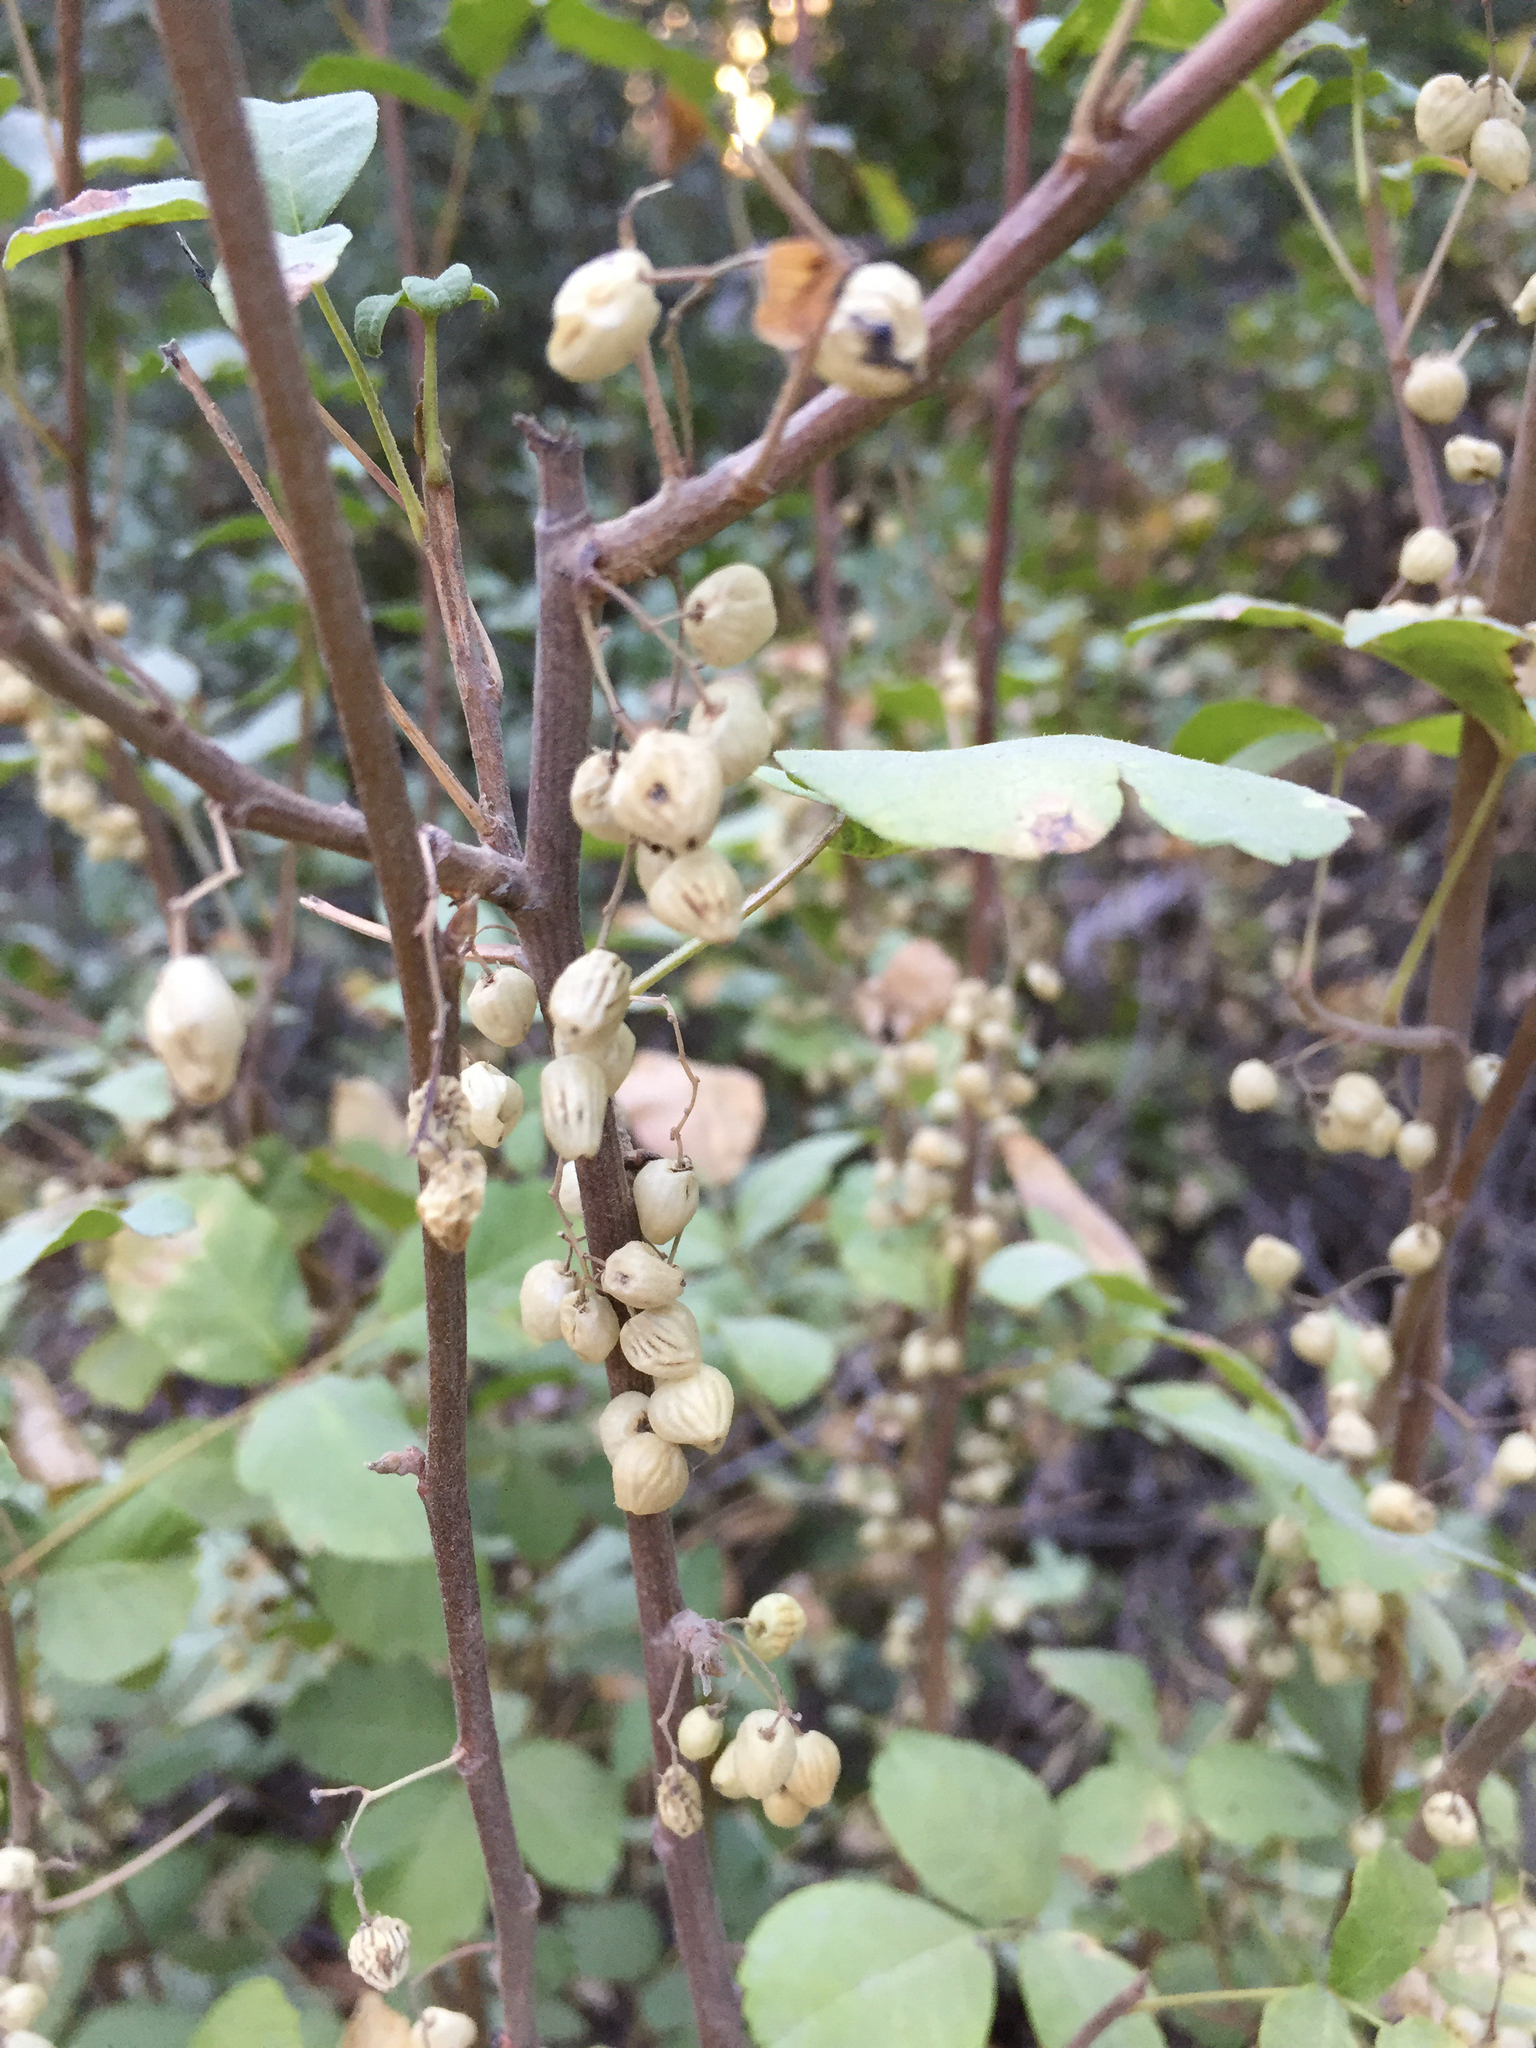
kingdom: Plantae
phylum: Tracheophyta
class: Magnoliopsida
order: Sapindales
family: Anacardiaceae
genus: Toxicodendron
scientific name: Toxicodendron diversilobum
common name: Pacific poison-oak
